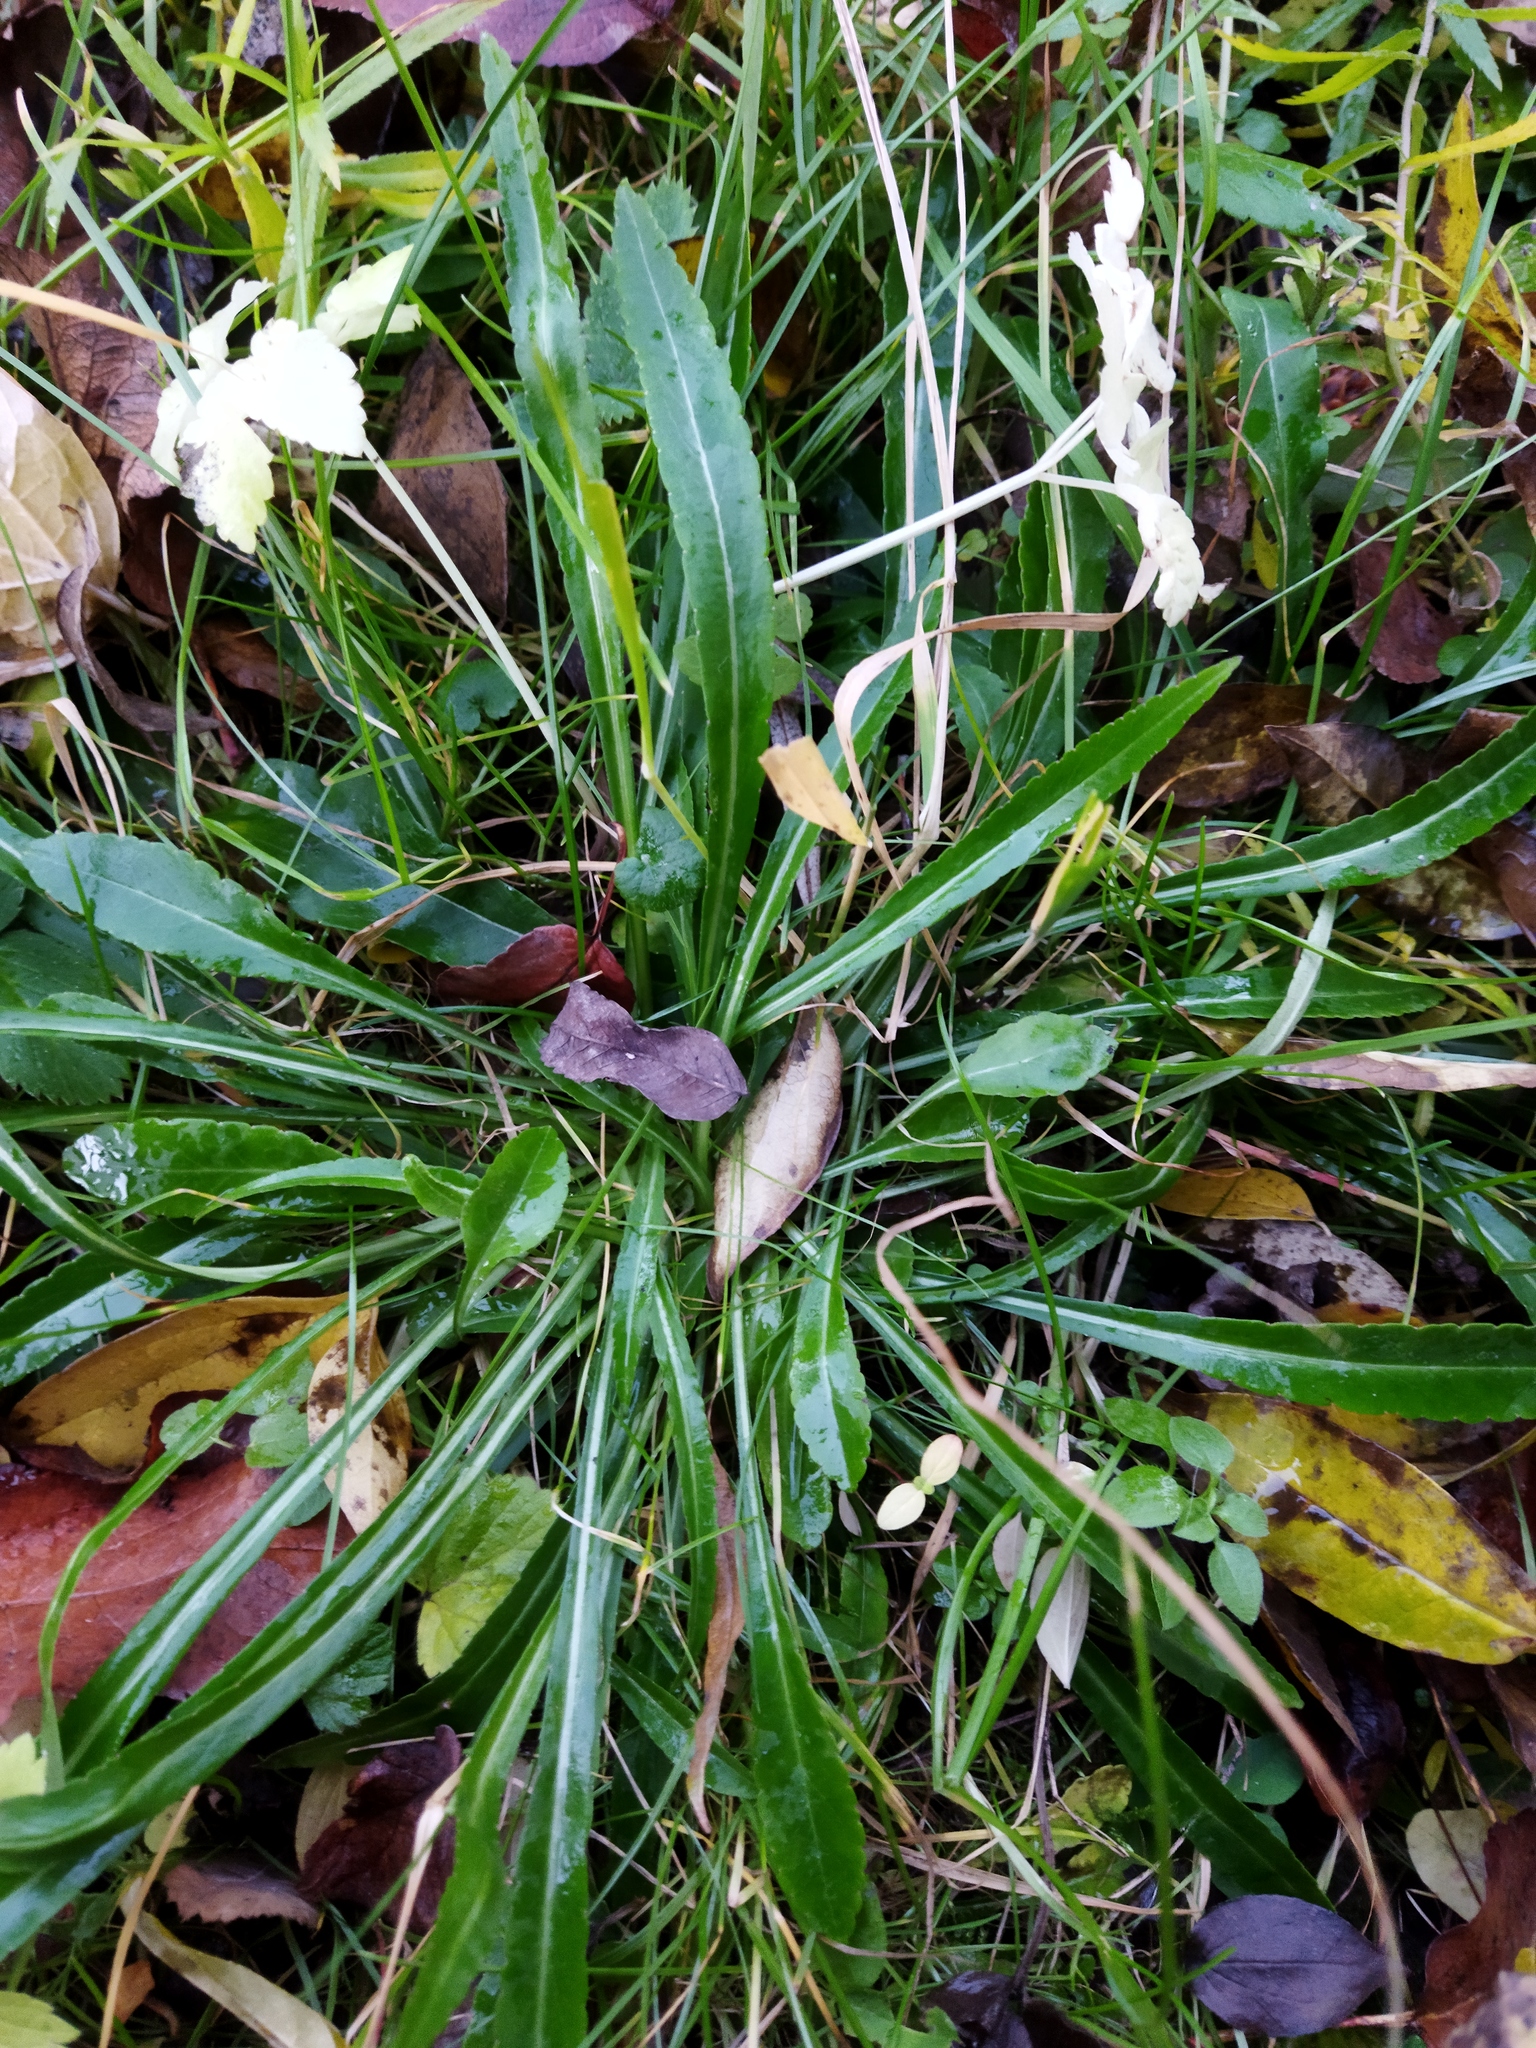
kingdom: Plantae
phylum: Tracheophyta
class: Magnoliopsida
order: Asterales
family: Campanulaceae
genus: Campanula
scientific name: Campanula persicifolia
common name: Peach-leaved bellflower
